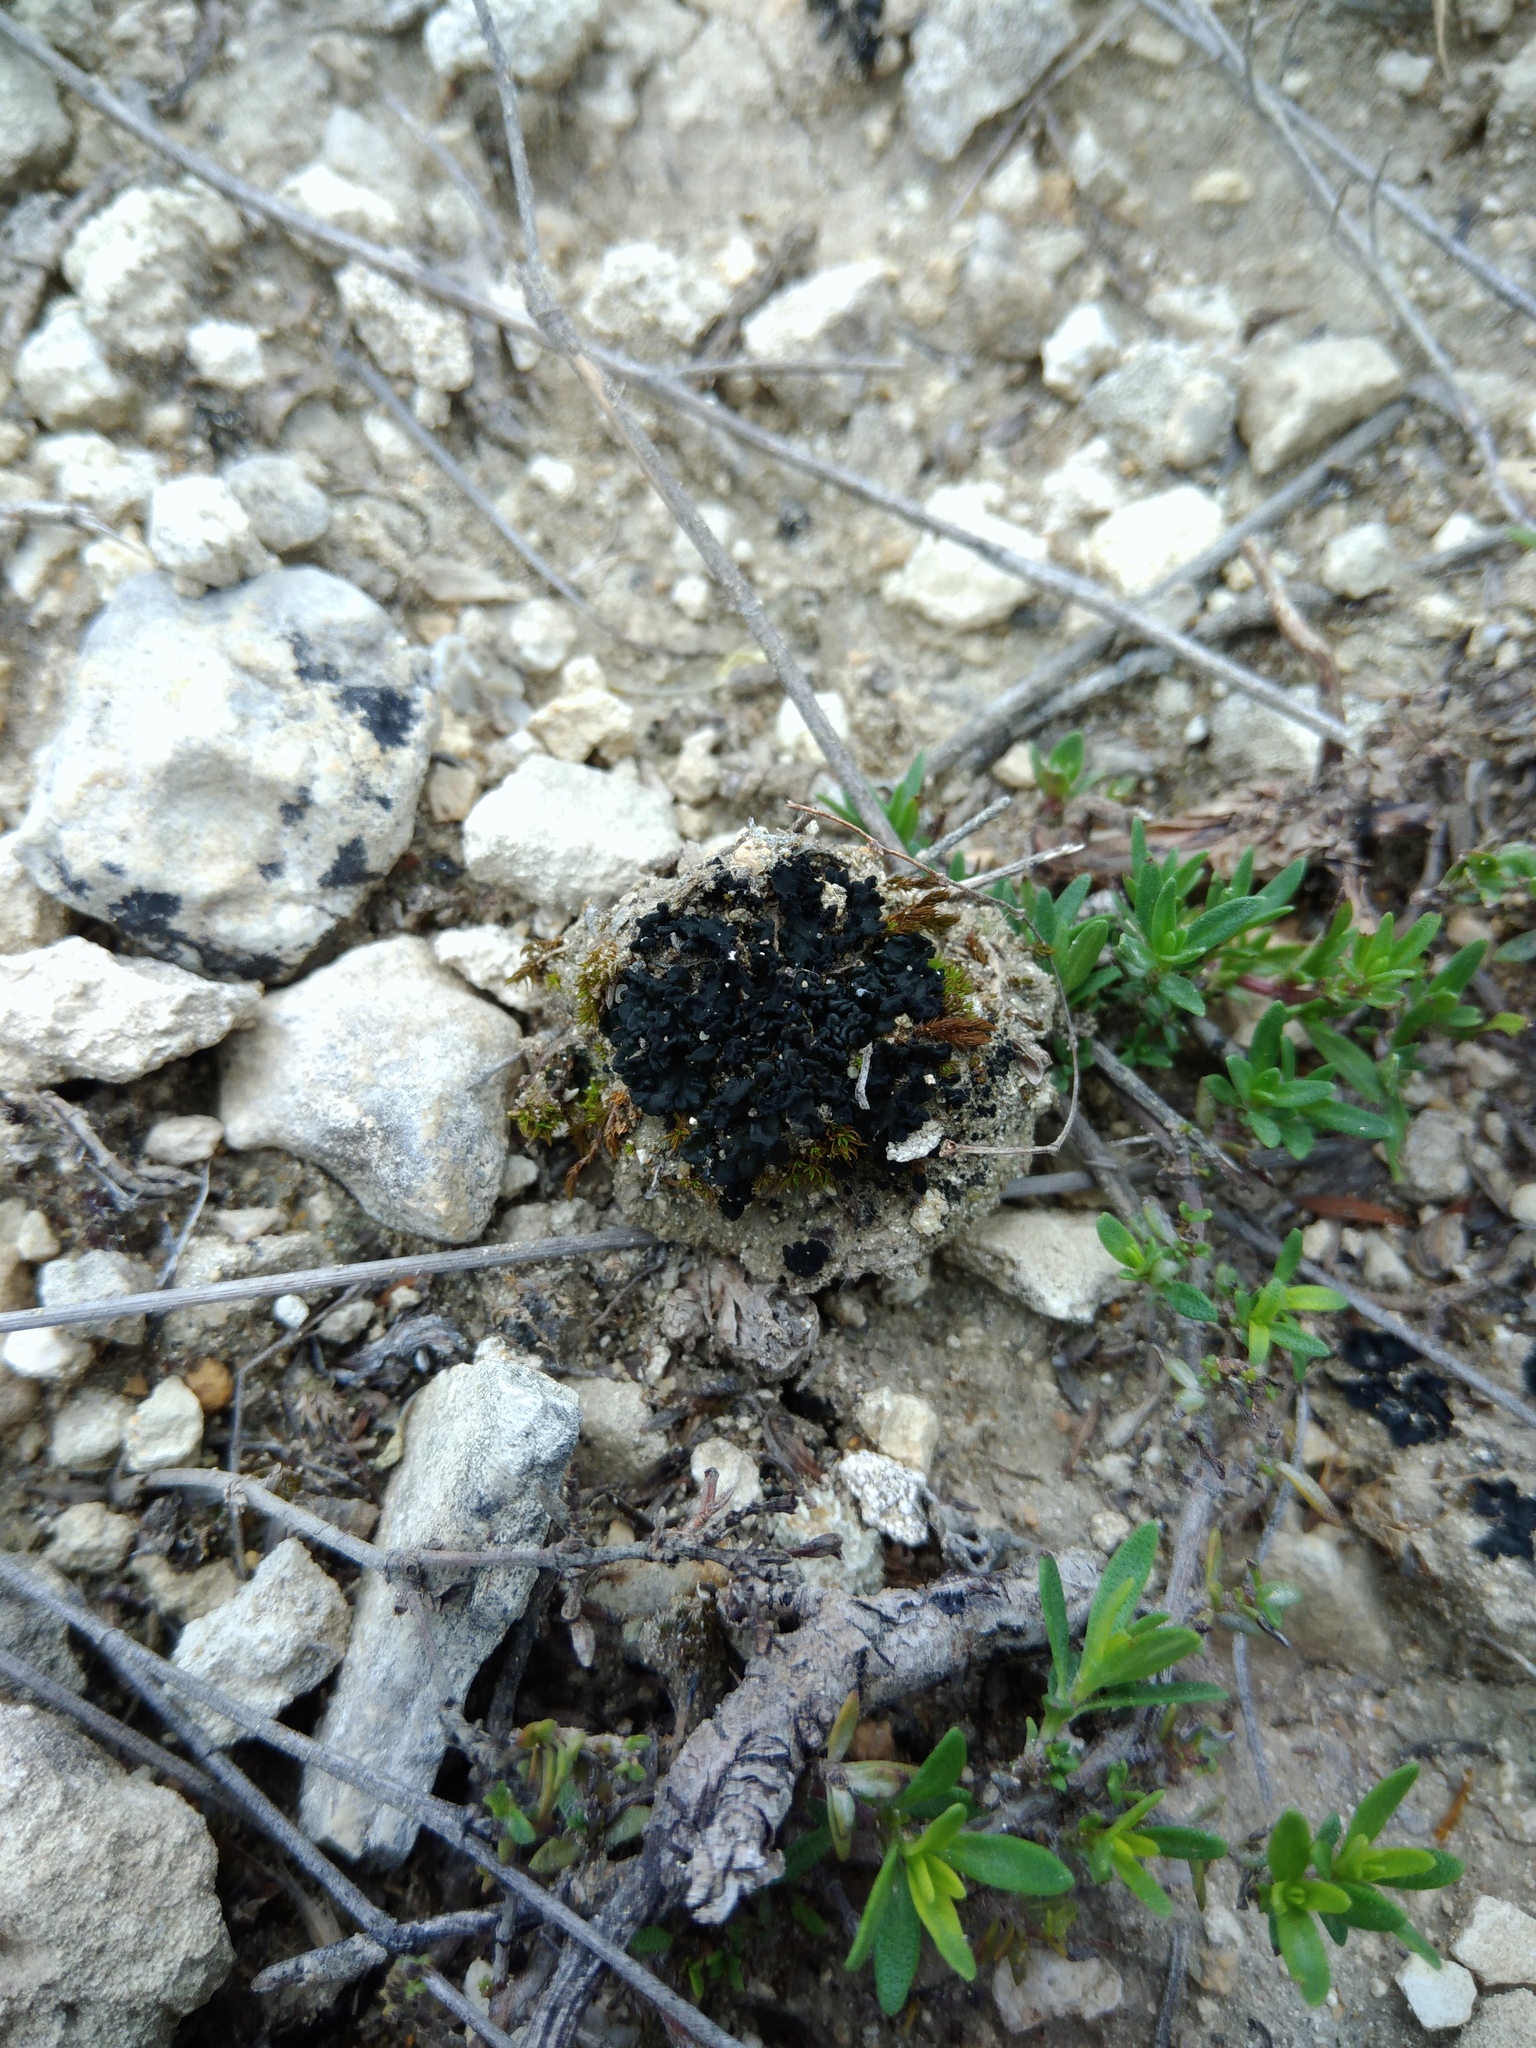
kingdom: Fungi
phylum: Ascomycota
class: Lecanoromycetes
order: Peltigerales
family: Collemataceae
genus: Enchylium
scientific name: Enchylium tenax
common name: Jelly lichen
